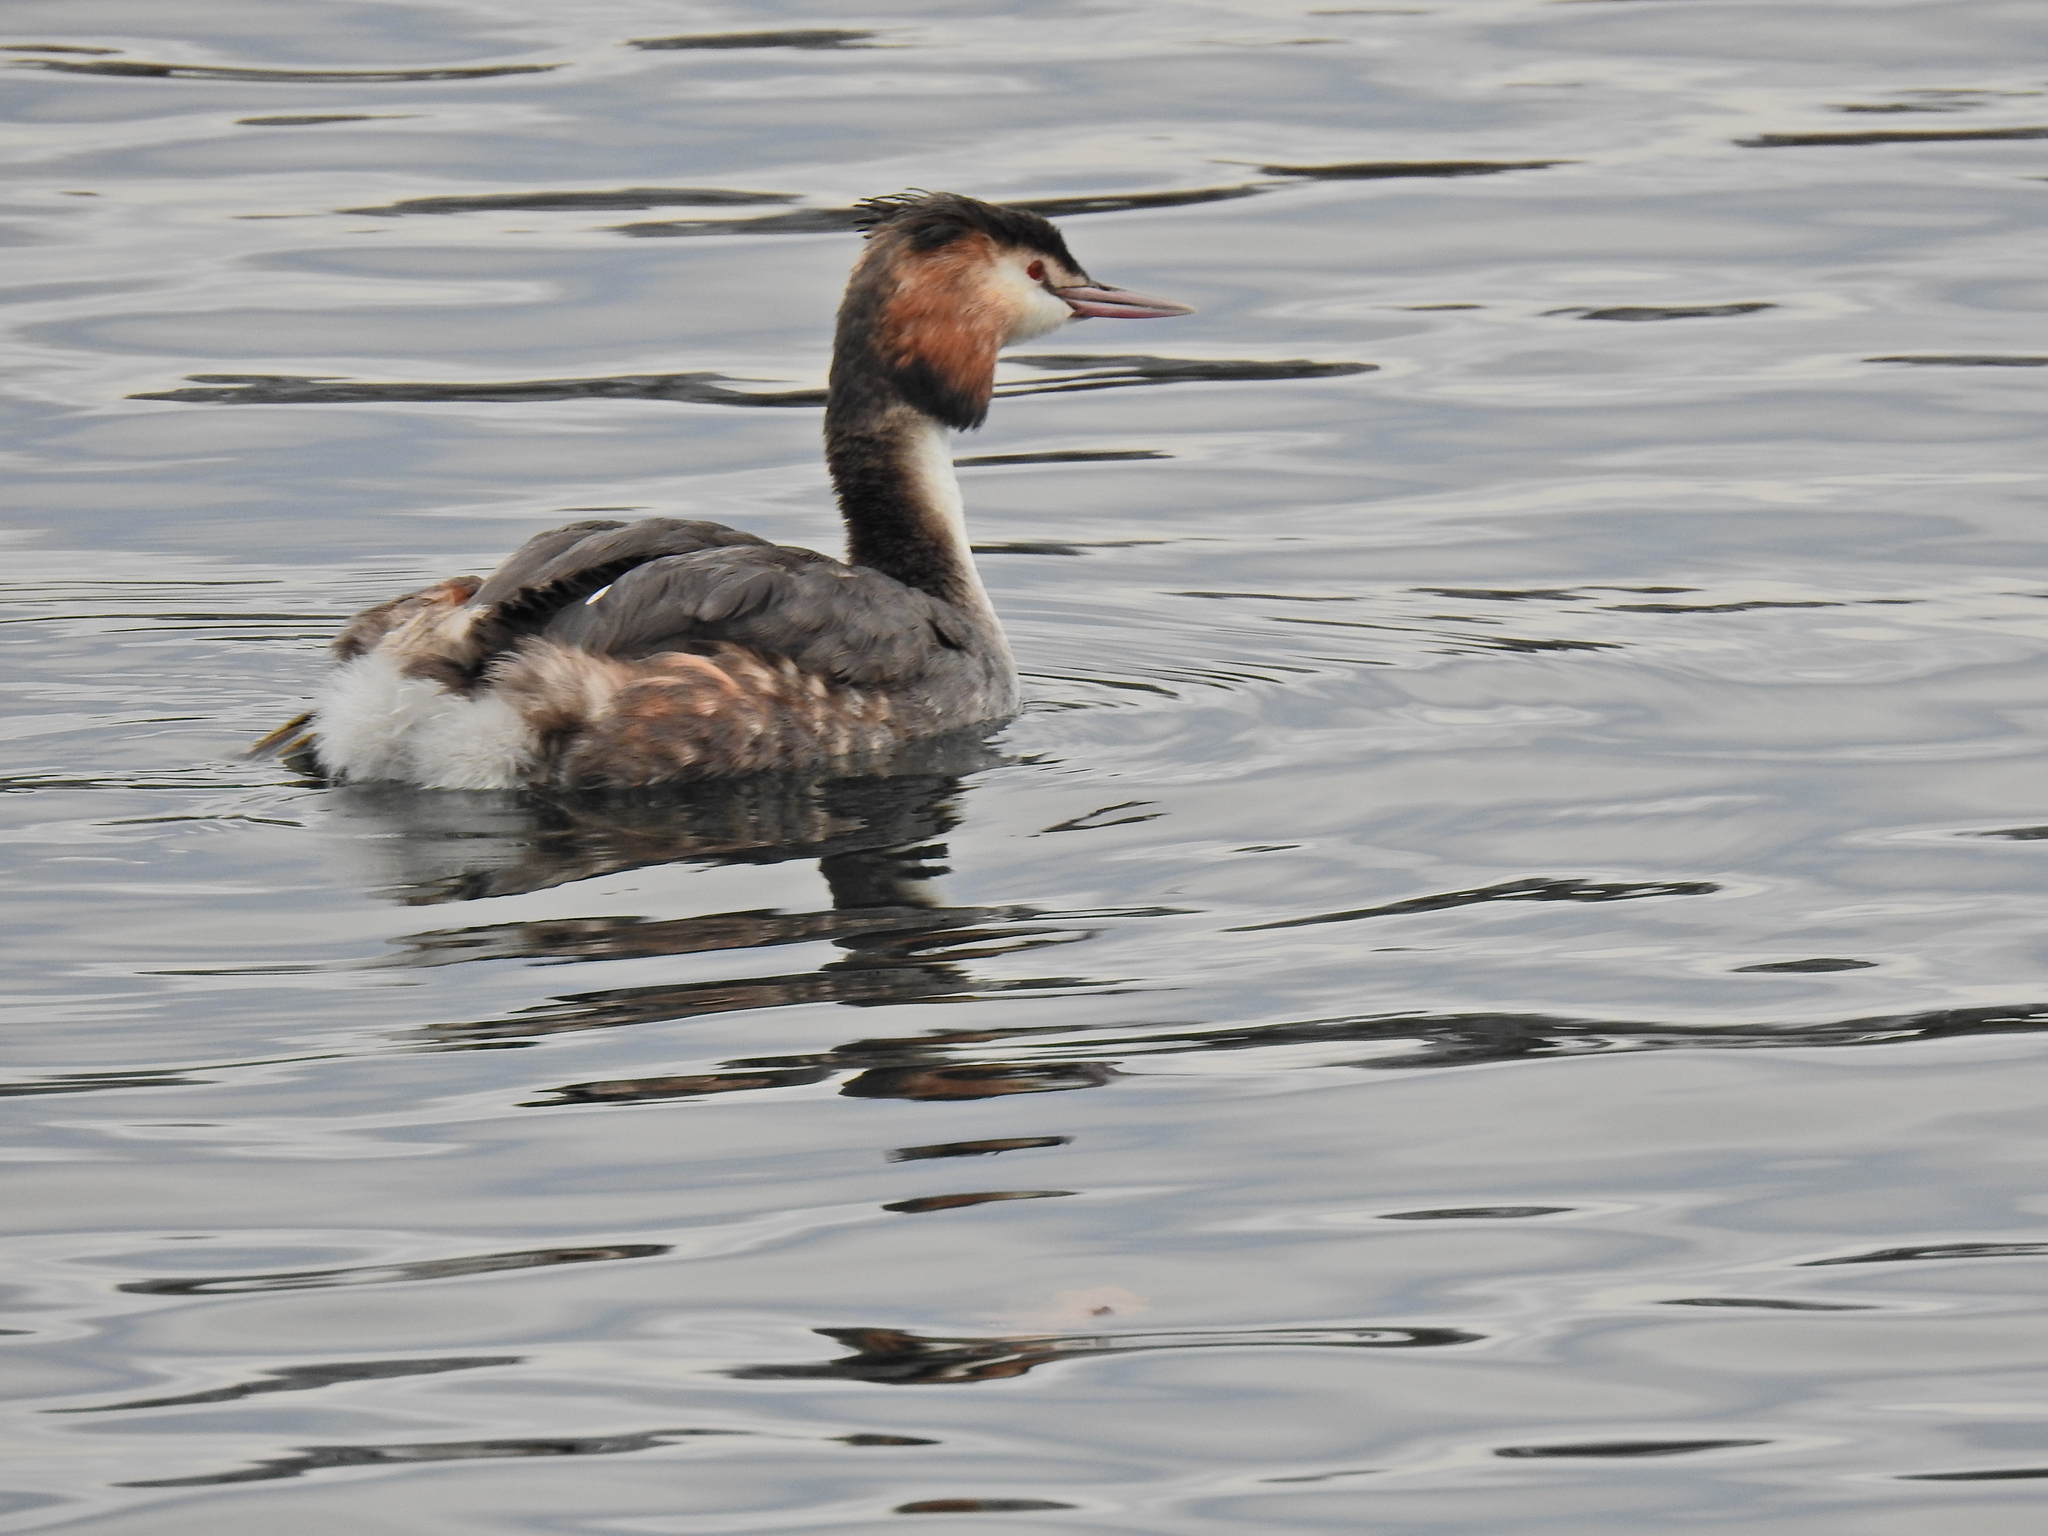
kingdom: Animalia
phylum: Chordata
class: Aves
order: Podicipediformes
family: Podicipedidae
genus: Podiceps
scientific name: Podiceps cristatus
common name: Great crested grebe
